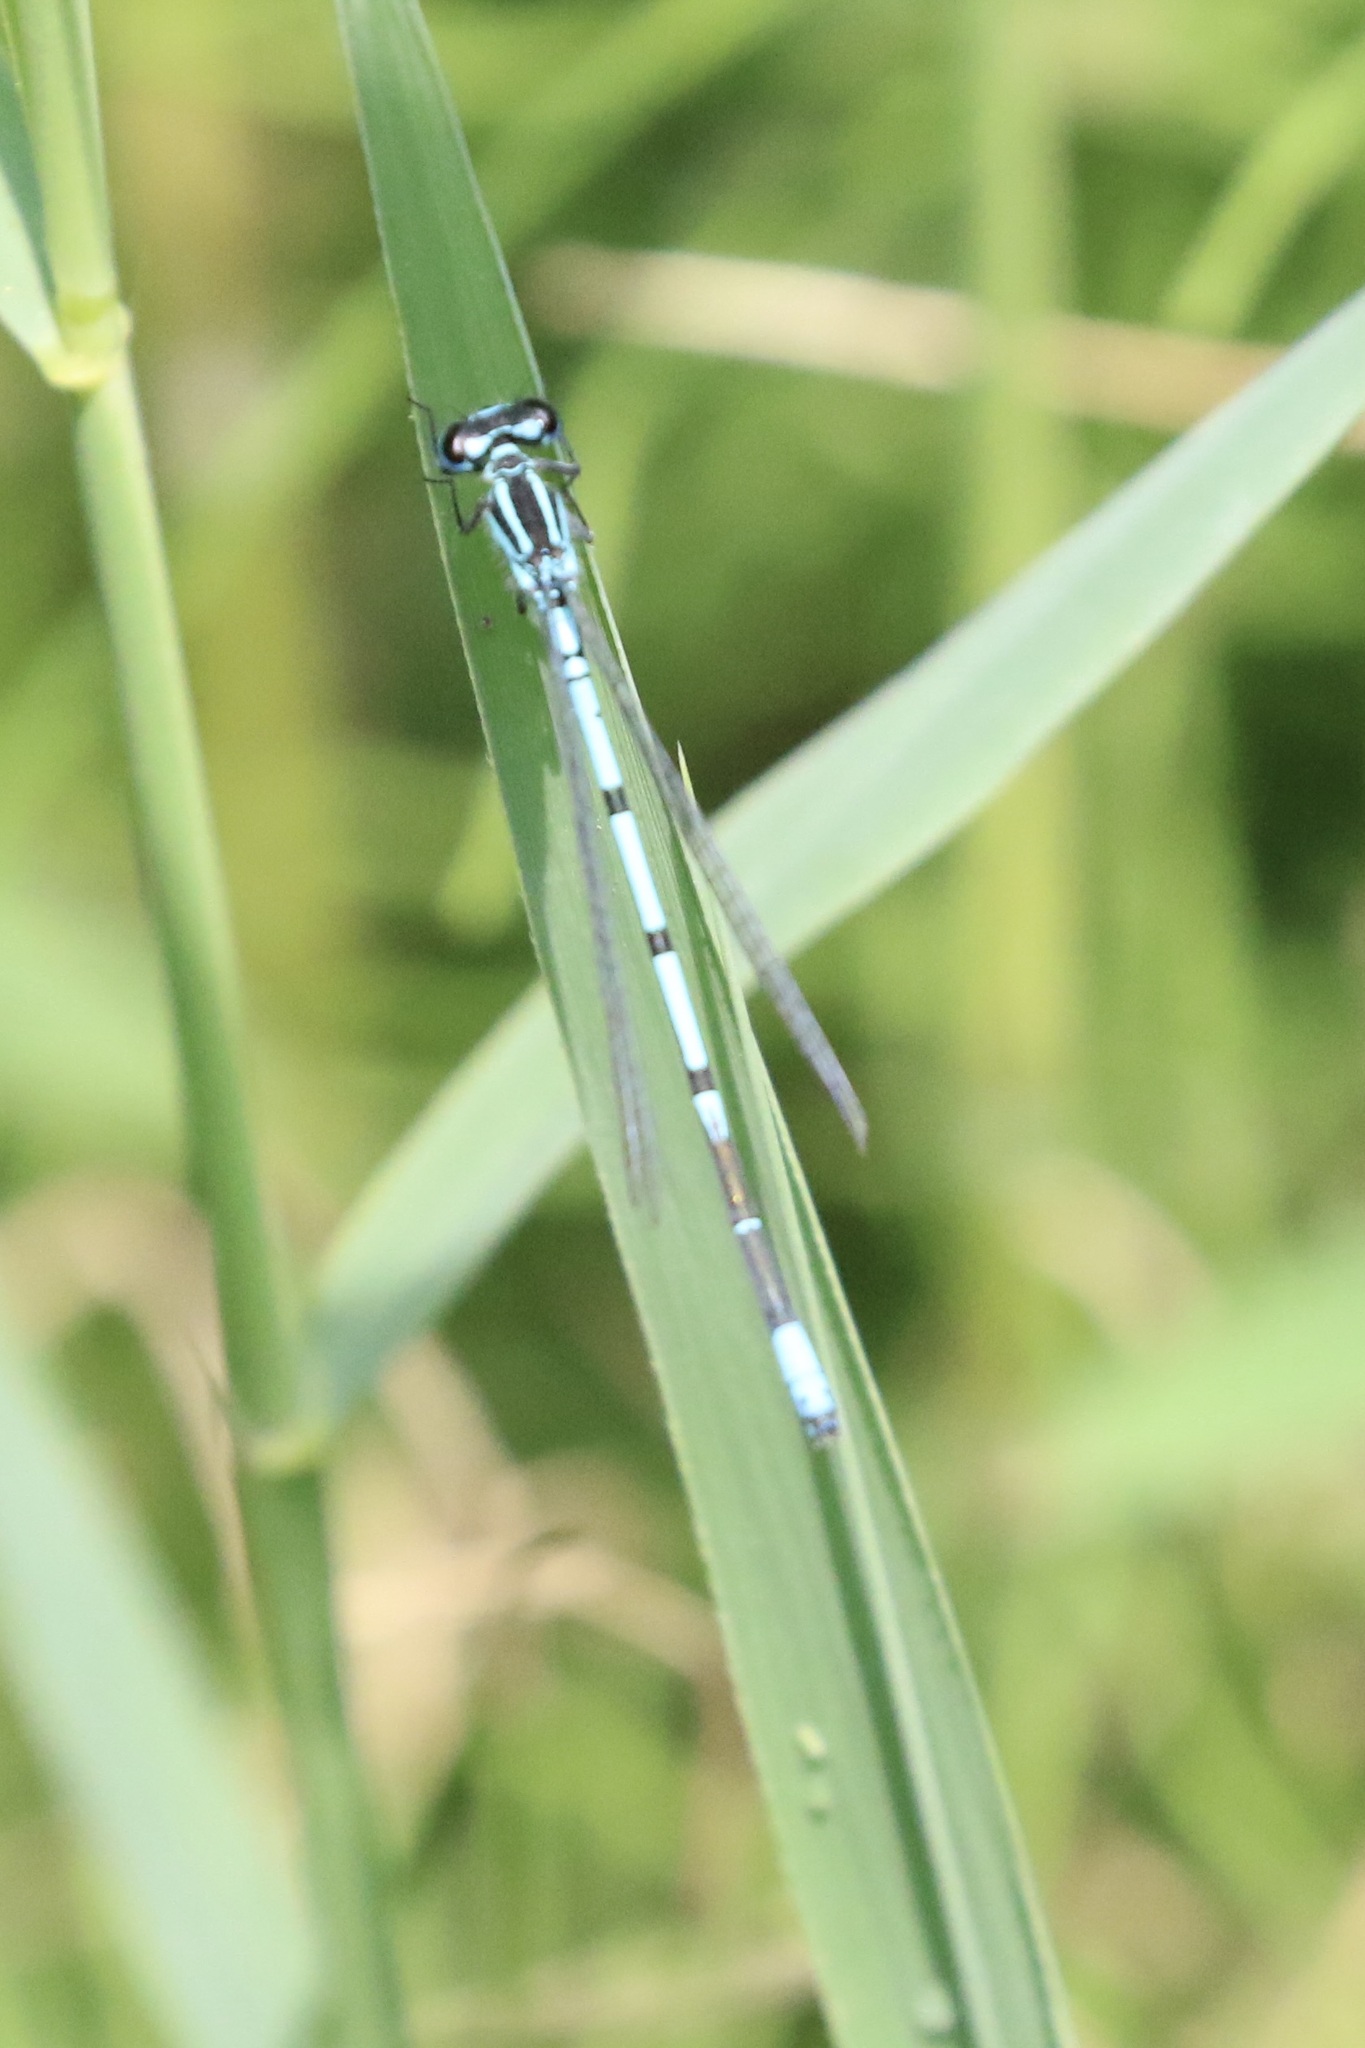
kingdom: Animalia
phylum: Arthropoda
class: Insecta
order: Odonata
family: Coenagrionidae
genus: Coenagrion
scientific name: Coenagrion puella
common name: Azure damselfly
